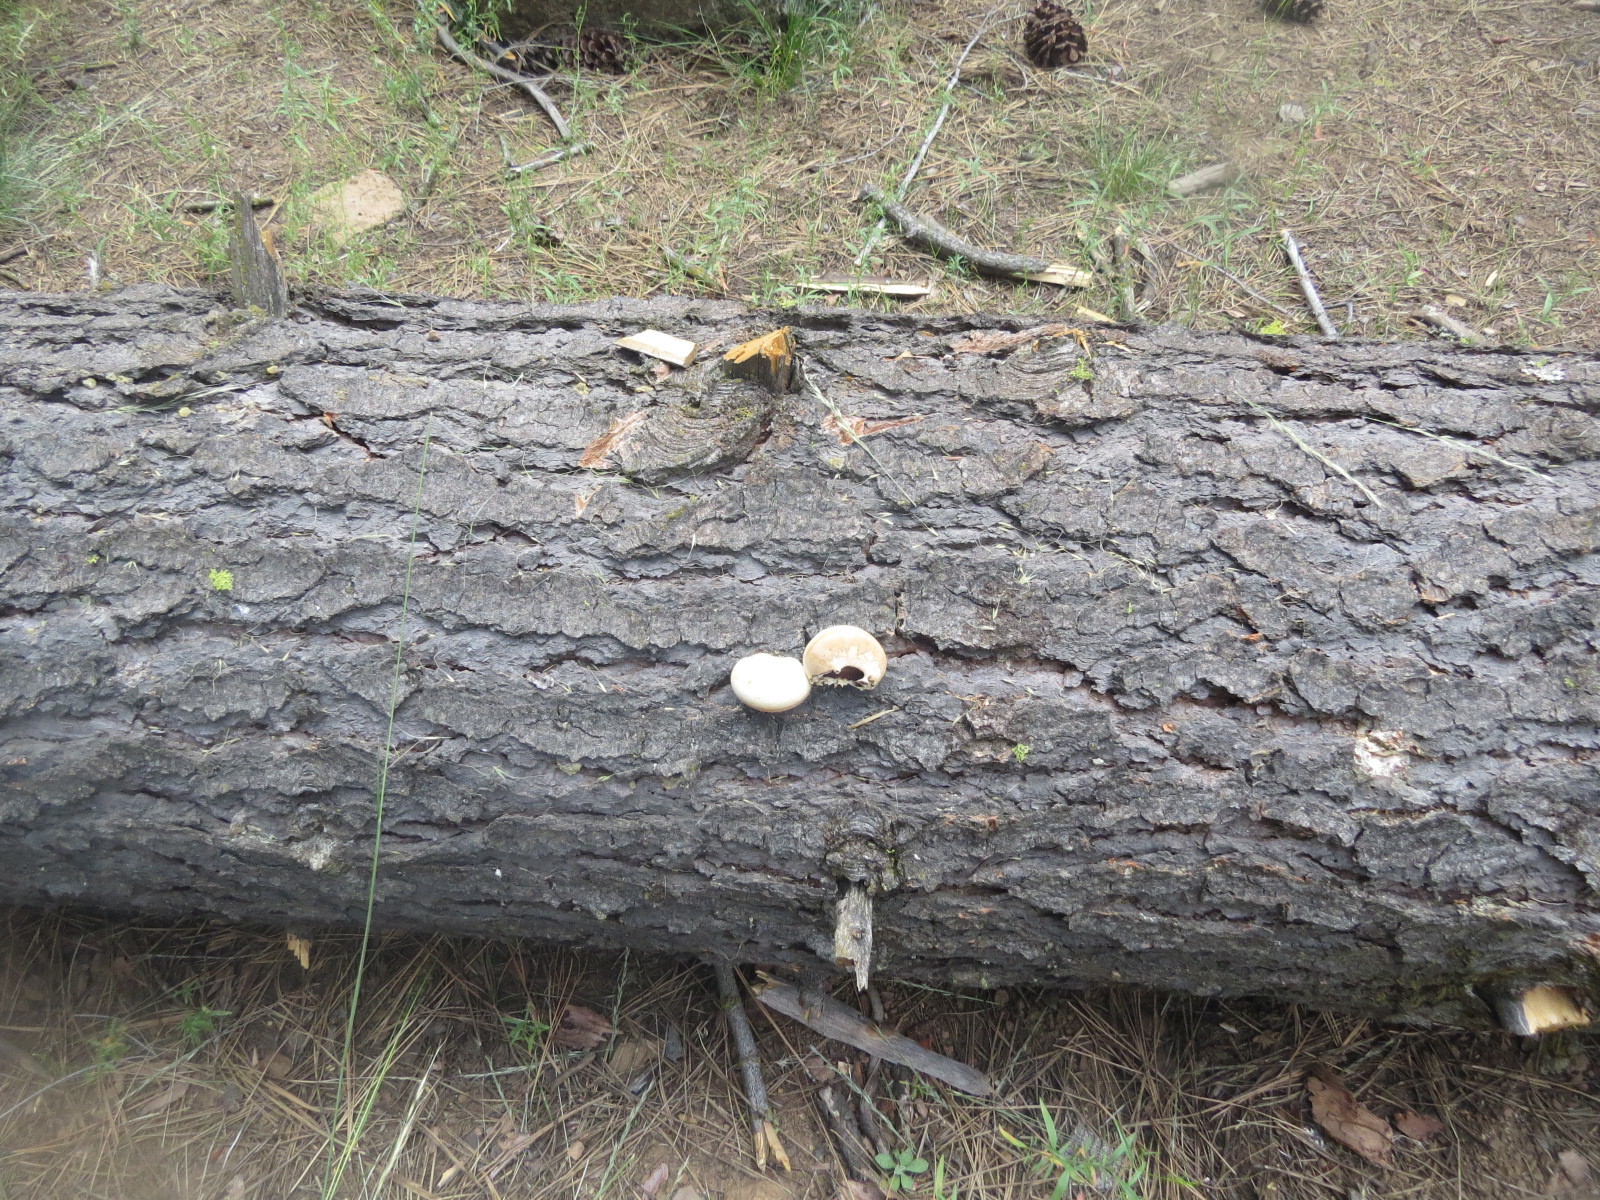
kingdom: Fungi
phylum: Basidiomycota
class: Agaricomycetes
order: Polyporales
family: Polyporaceae
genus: Cryptoporus
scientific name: Cryptoporus volvatus
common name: Veiled polypore
